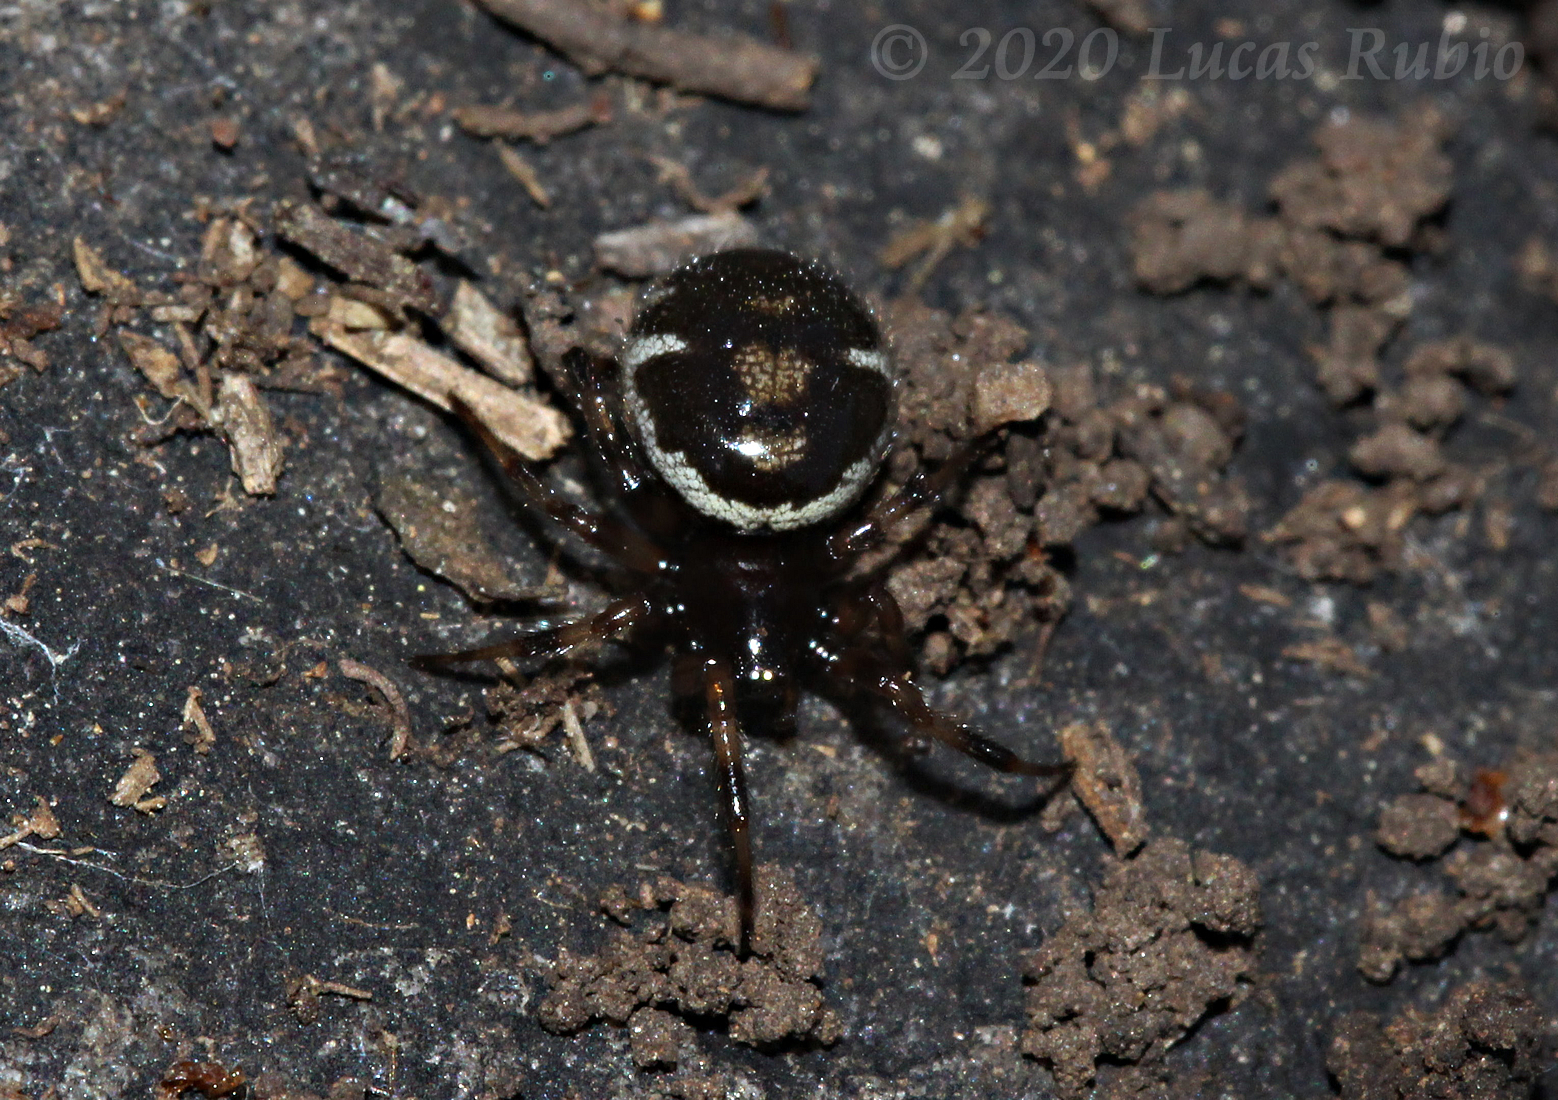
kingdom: Animalia
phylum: Arthropoda
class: Arachnida
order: Araneae
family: Theridiidae
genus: Steatoda
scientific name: Steatoda ancorata
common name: Cobweb spiders
